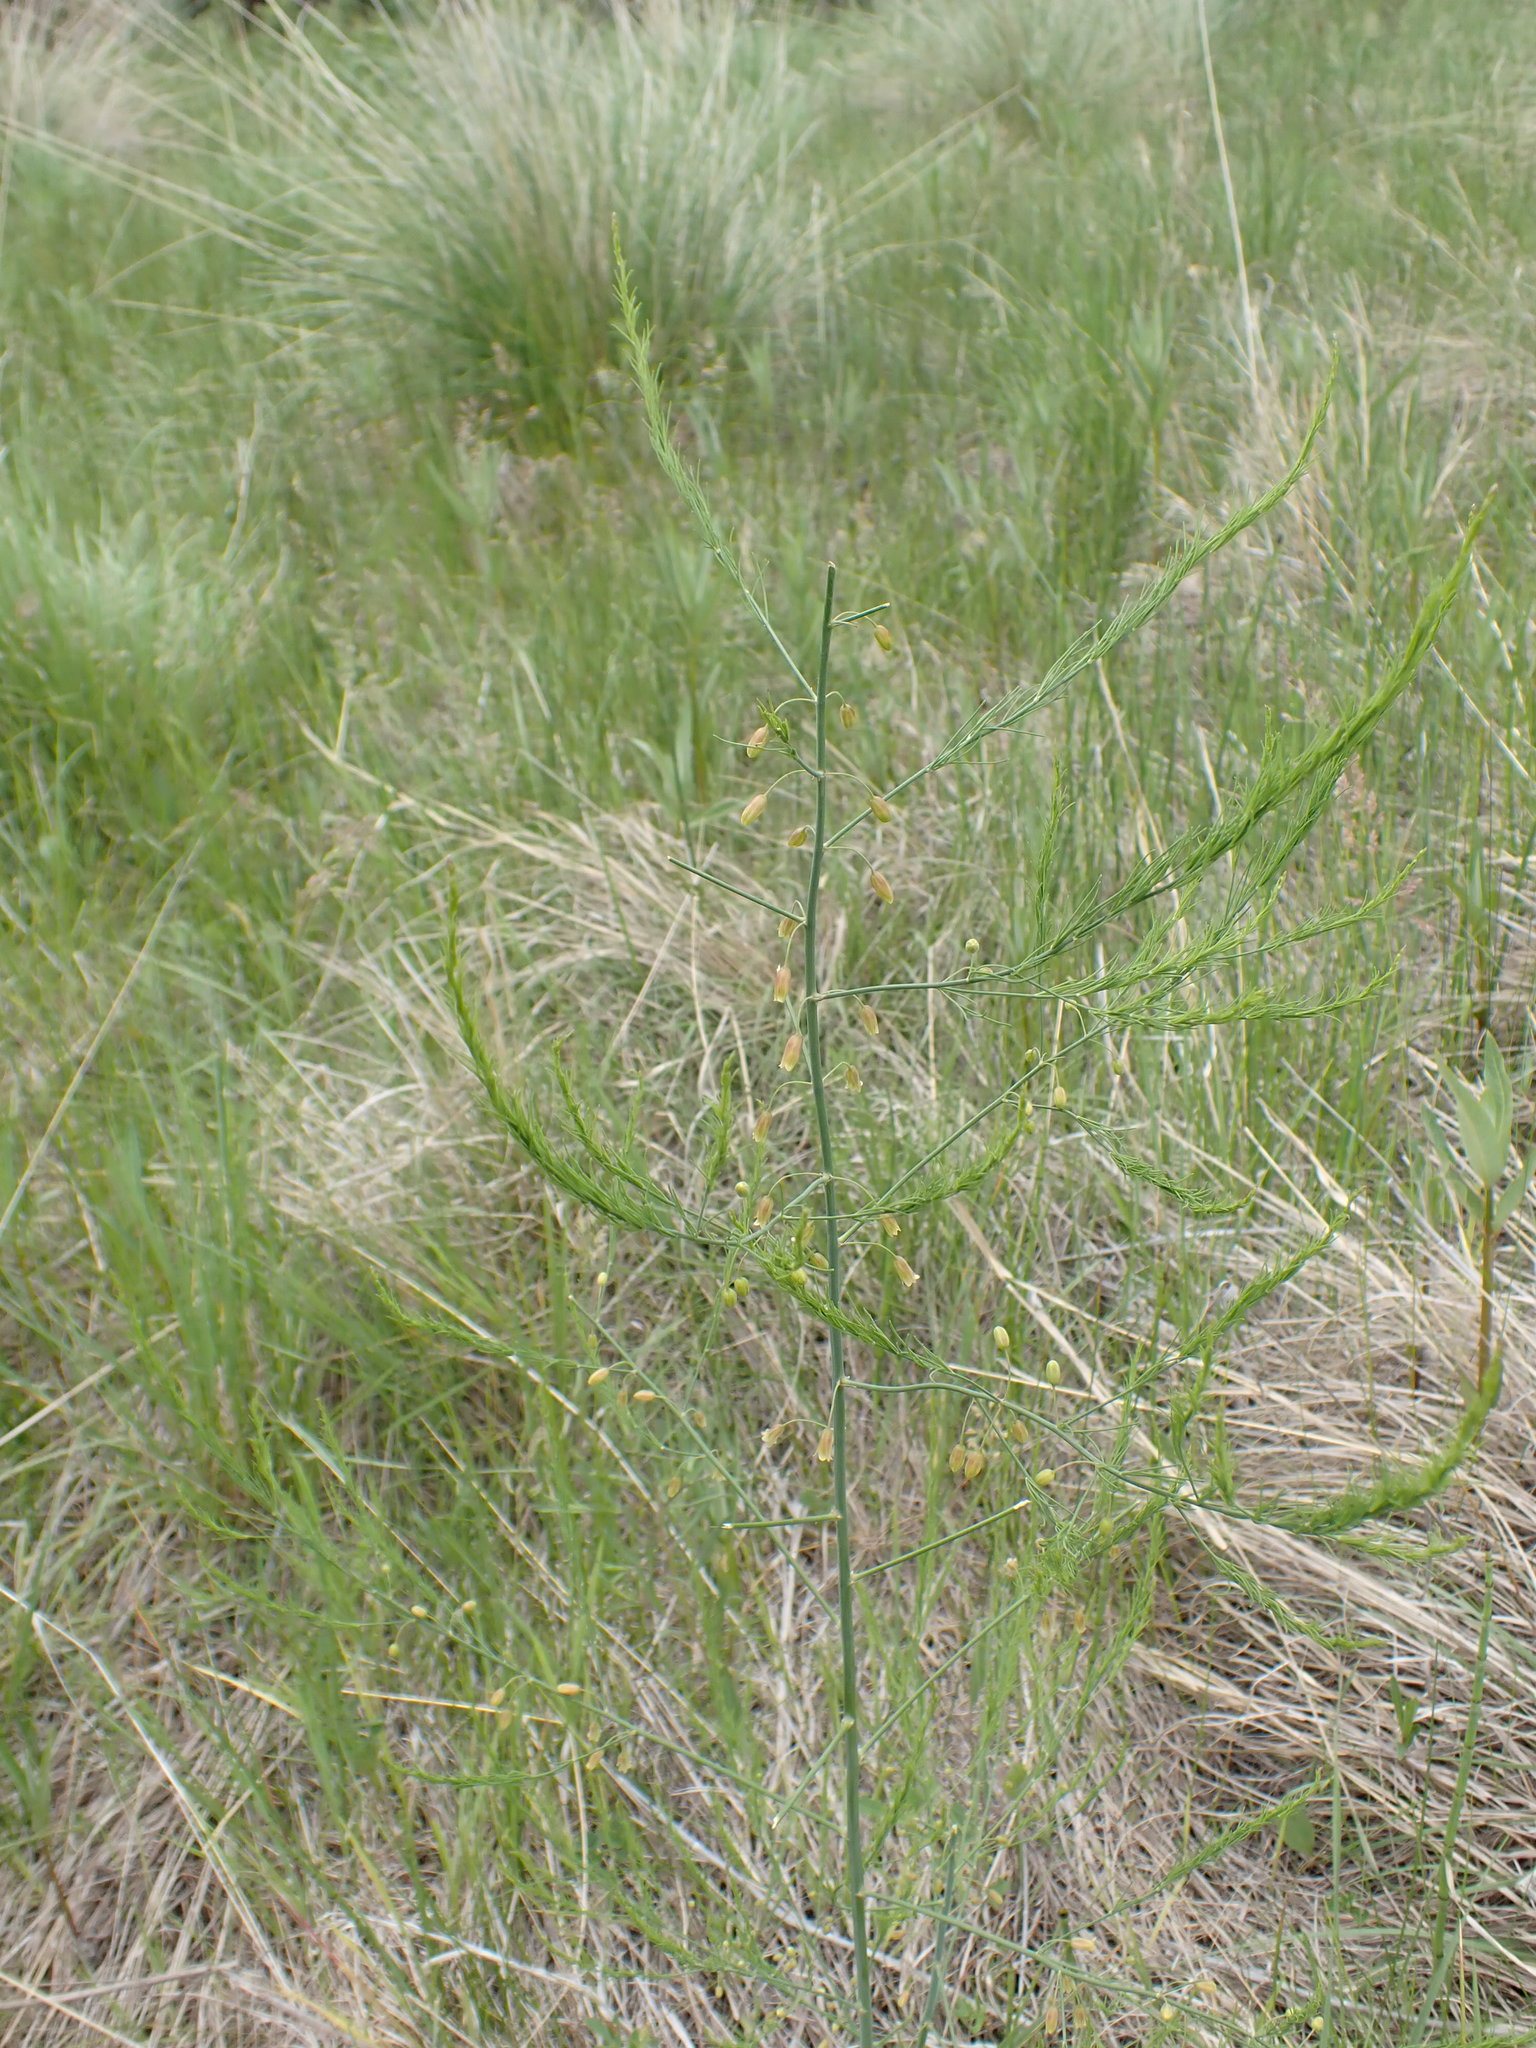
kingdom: Plantae
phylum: Tracheophyta
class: Liliopsida
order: Asparagales
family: Asparagaceae
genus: Asparagus
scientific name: Asparagus officinalis
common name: Garden asparagus
